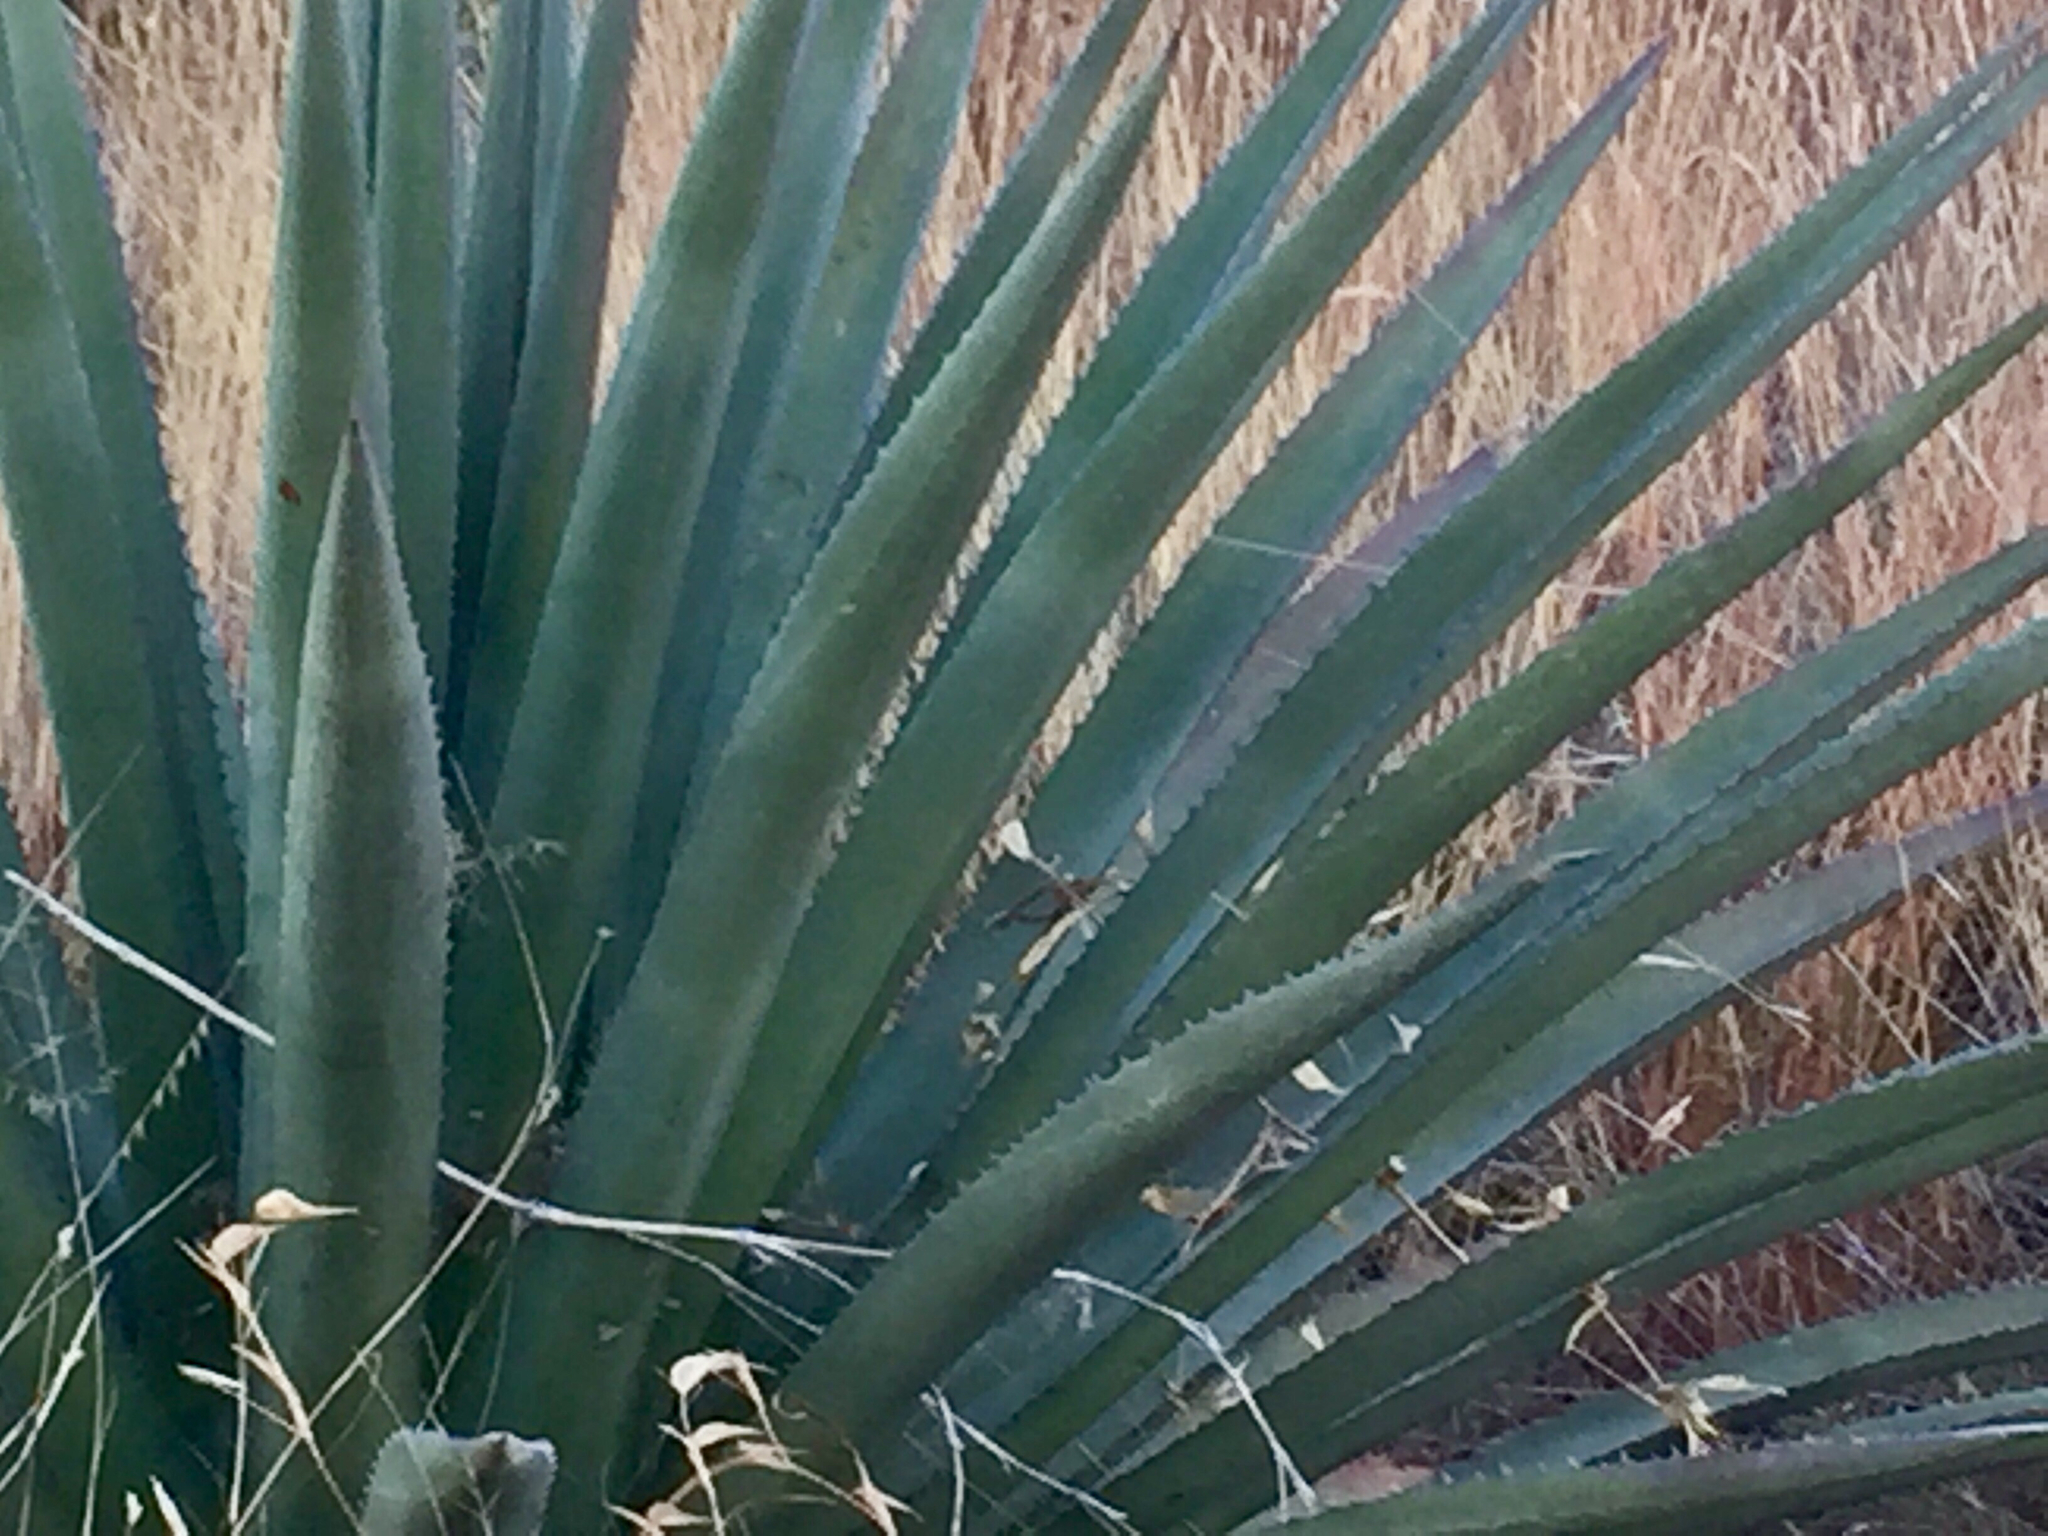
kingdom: Plantae
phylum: Tracheophyta
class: Liliopsida
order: Asparagales
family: Asparagaceae
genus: Agave
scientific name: Agave palmeri
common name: Palmer agave
